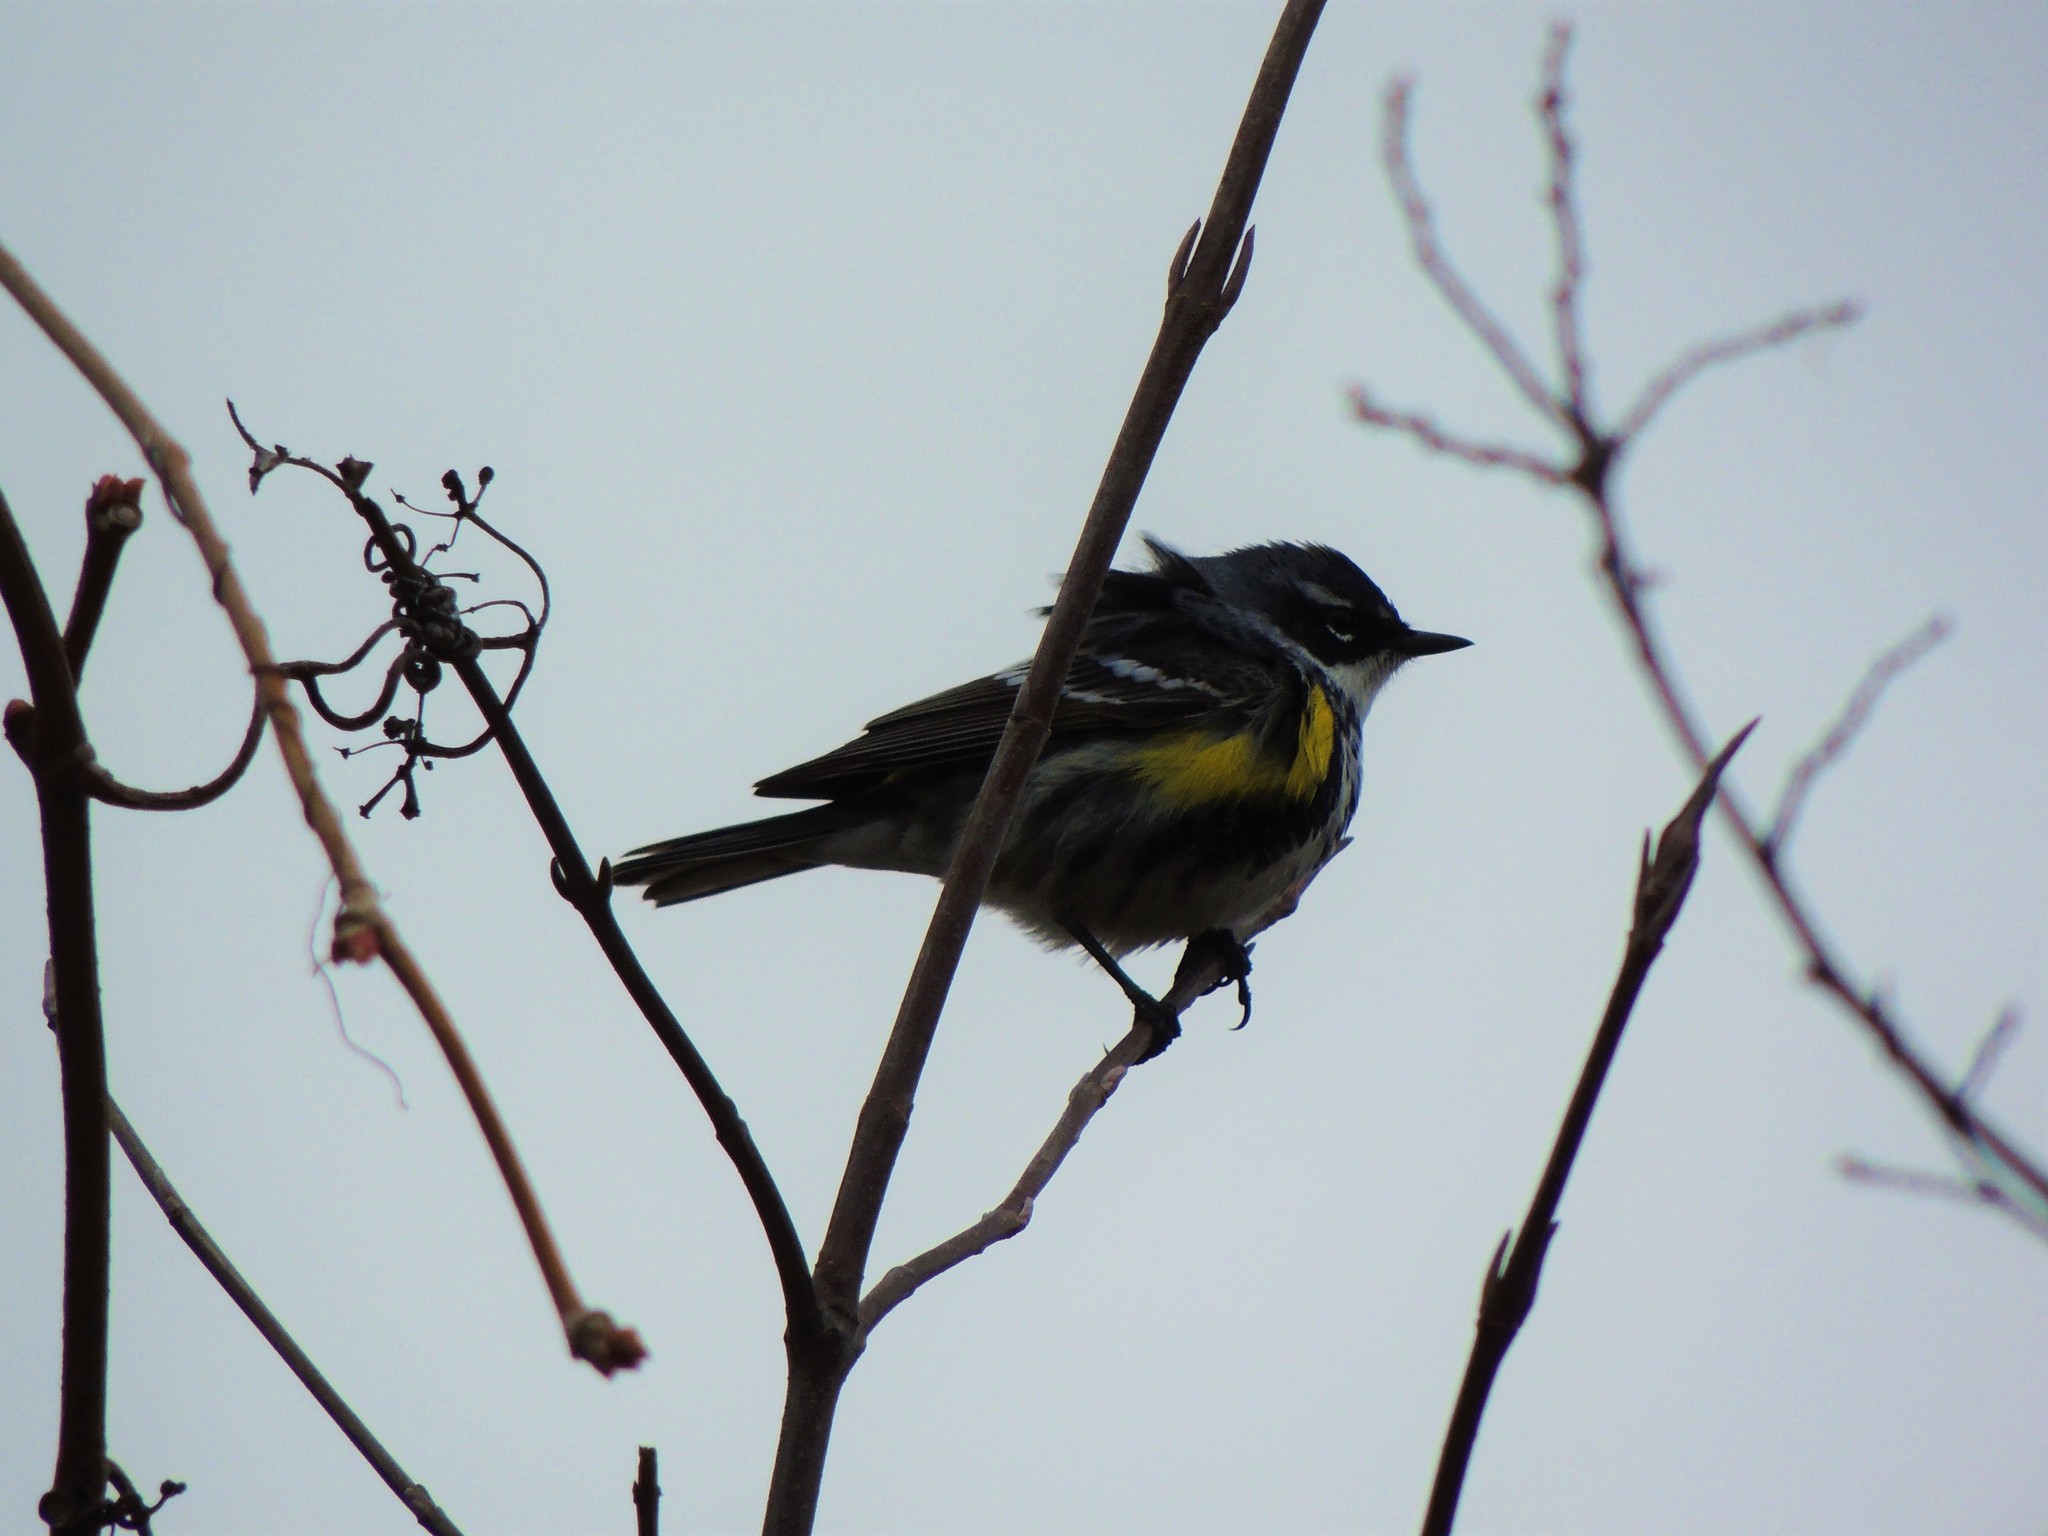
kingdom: Animalia
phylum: Chordata
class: Aves
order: Passeriformes
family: Parulidae
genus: Setophaga
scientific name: Setophaga coronata
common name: Myrtle warbler
